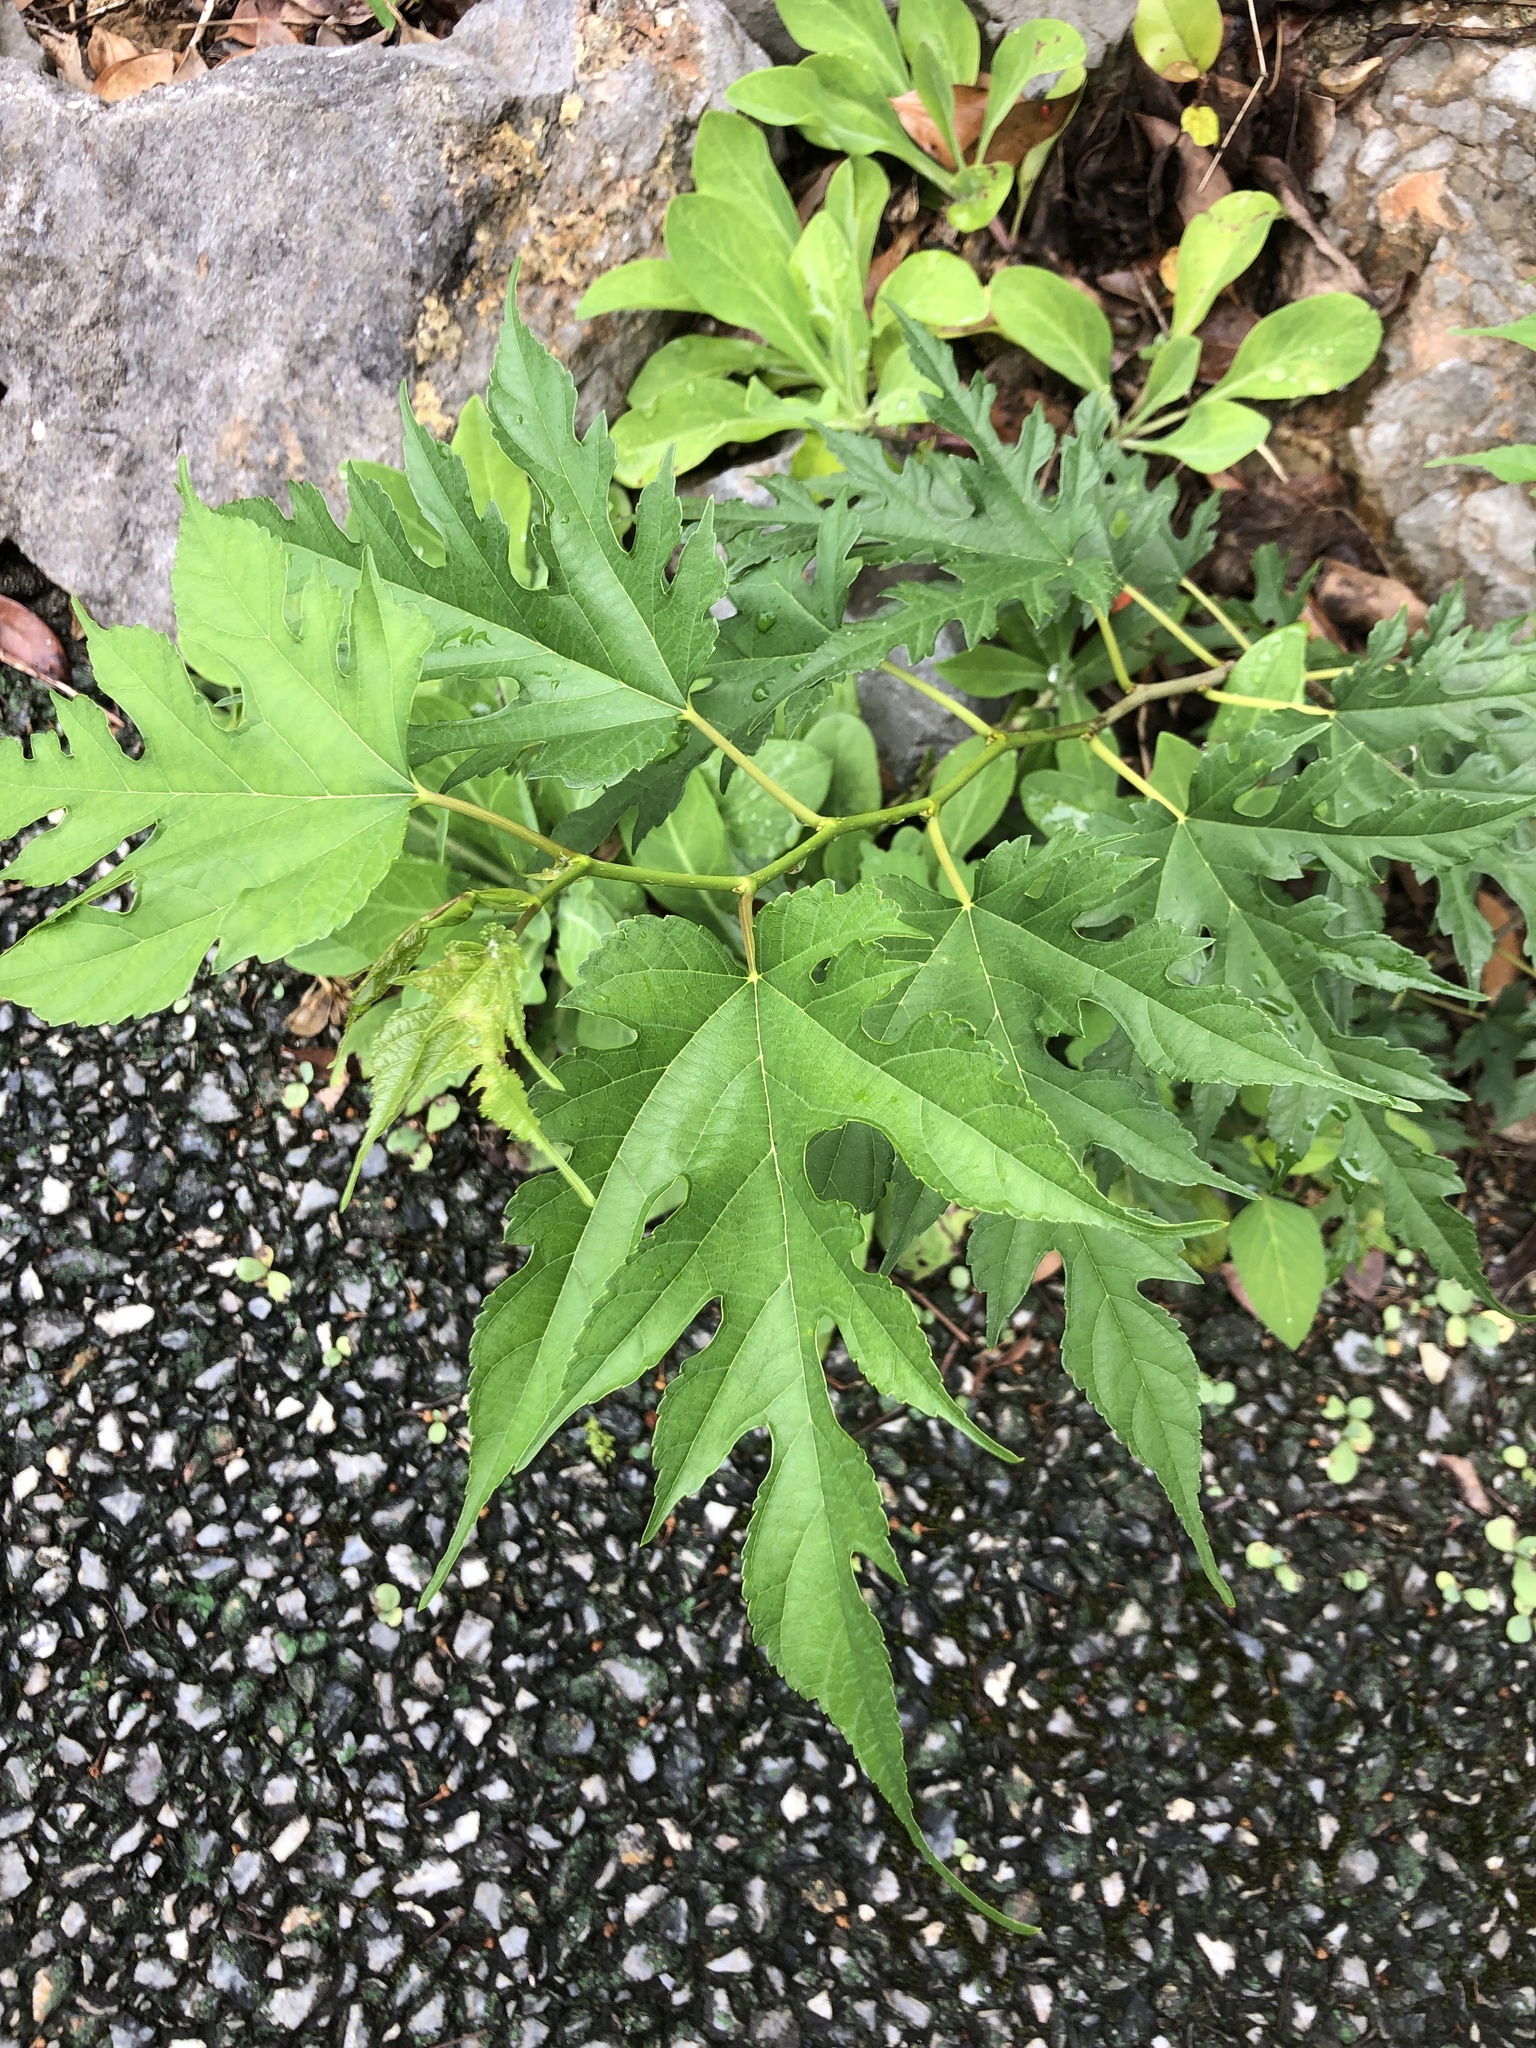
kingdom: Plantae
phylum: Tracheophyta
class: Magnoliopsida
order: Rosales
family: Moraceae
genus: Morus
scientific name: Morus indica
